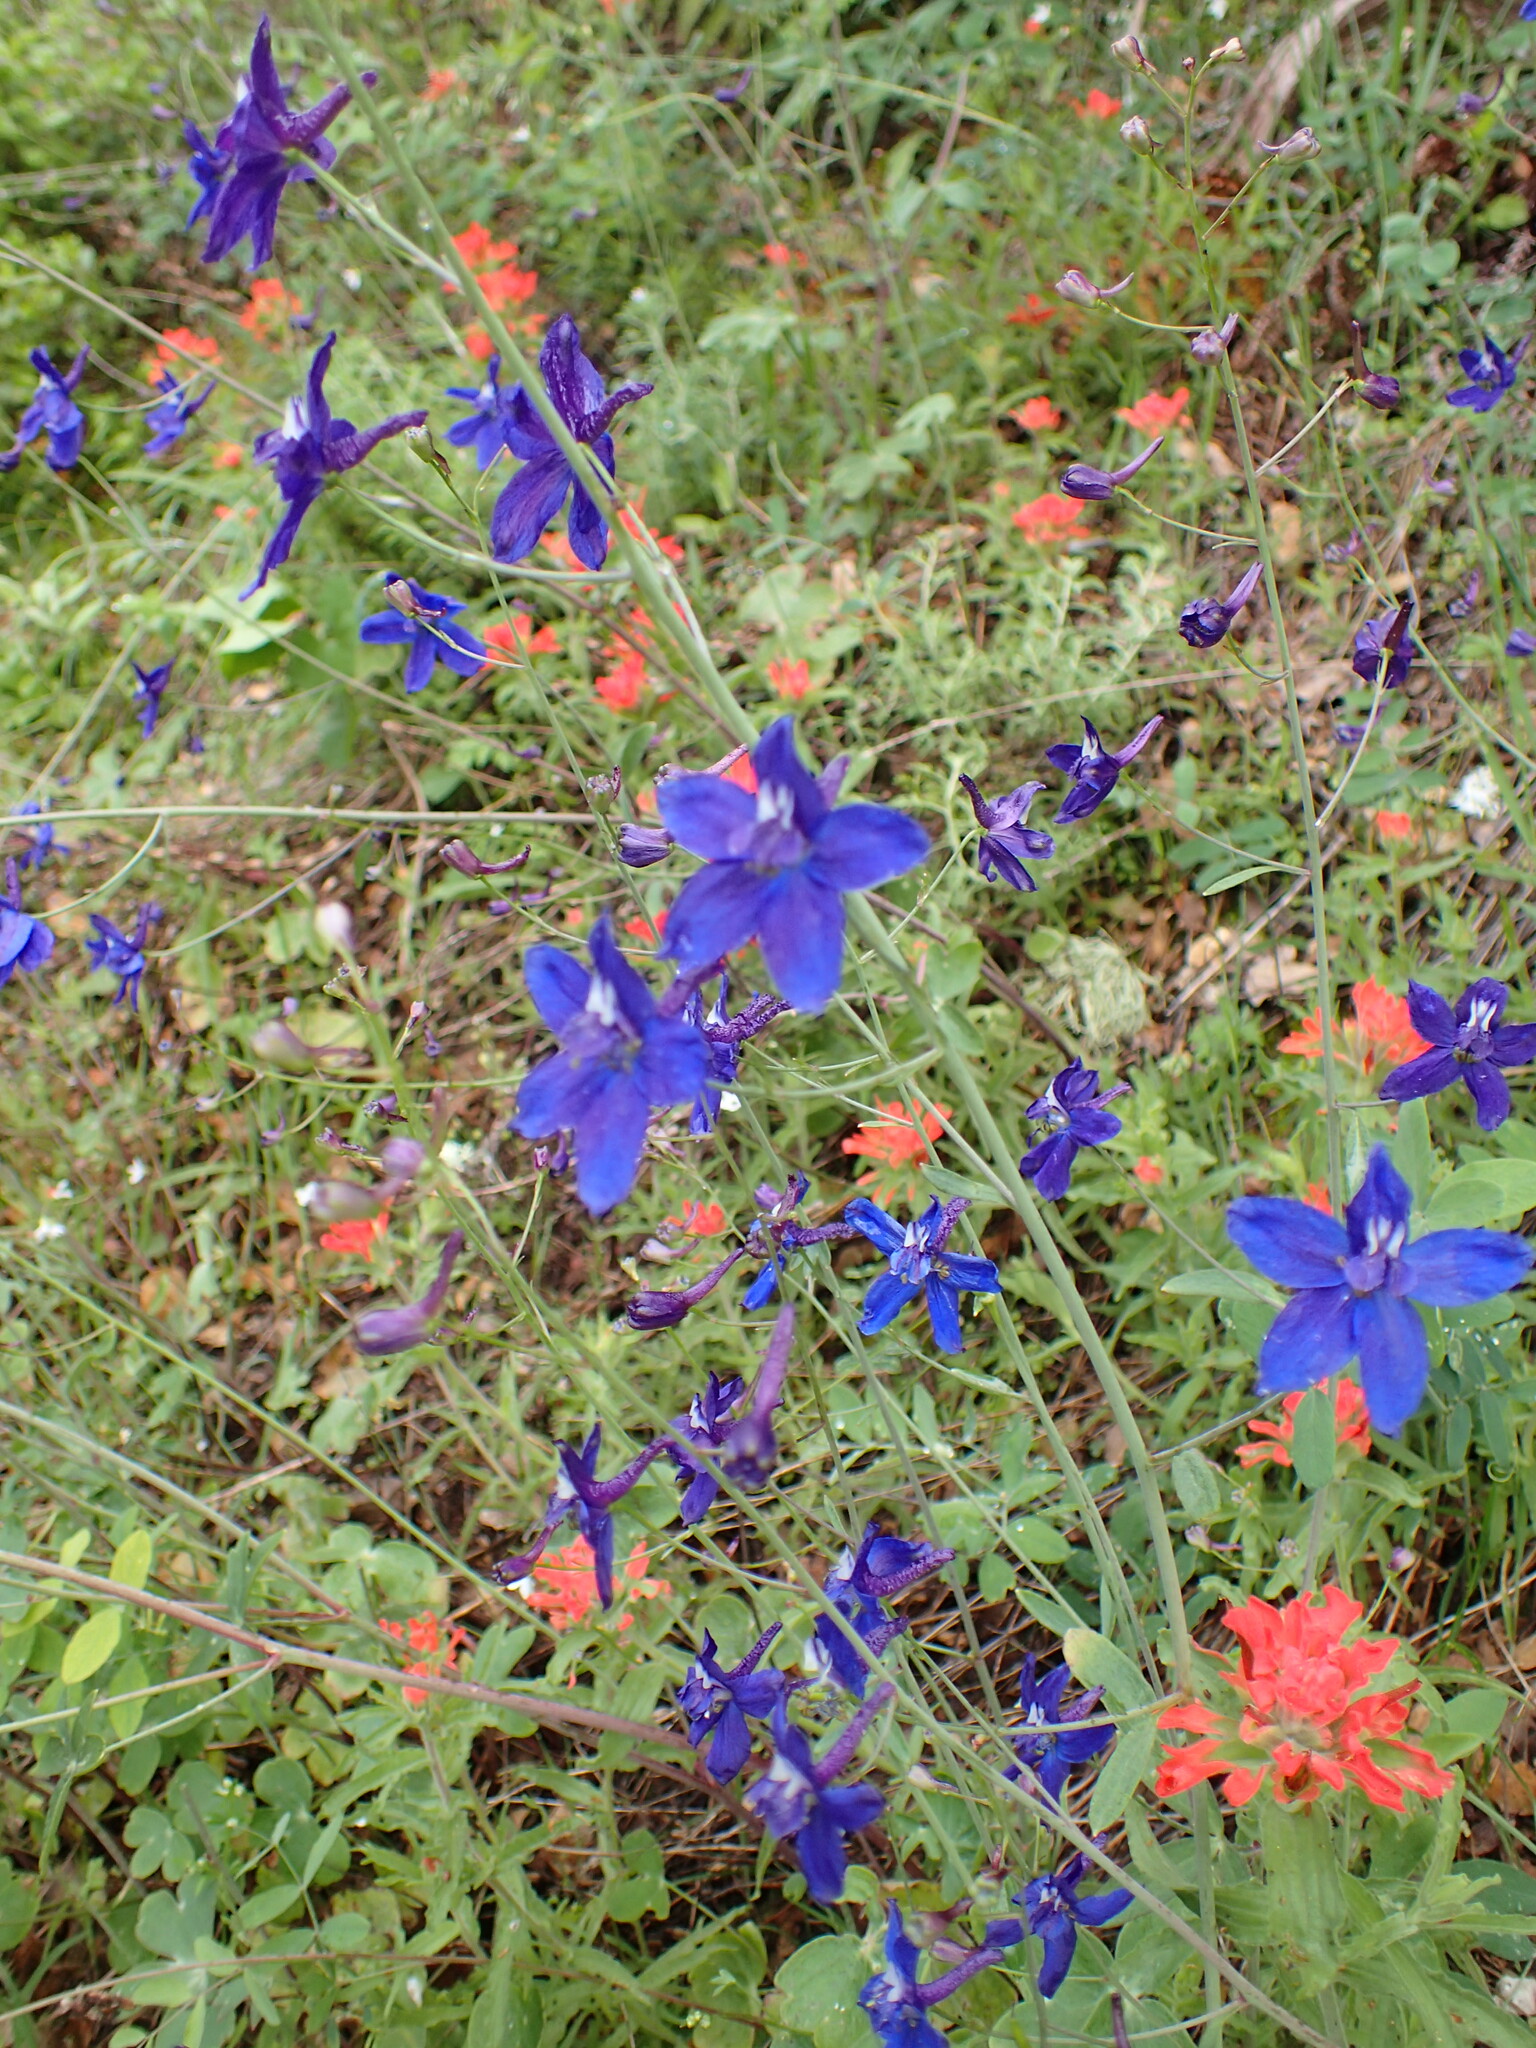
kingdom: Plantae
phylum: Tracheophyta
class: Magnoliopsida
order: Ranunculales
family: Ranunculaceae
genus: Delphinium
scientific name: Delphinium patens
